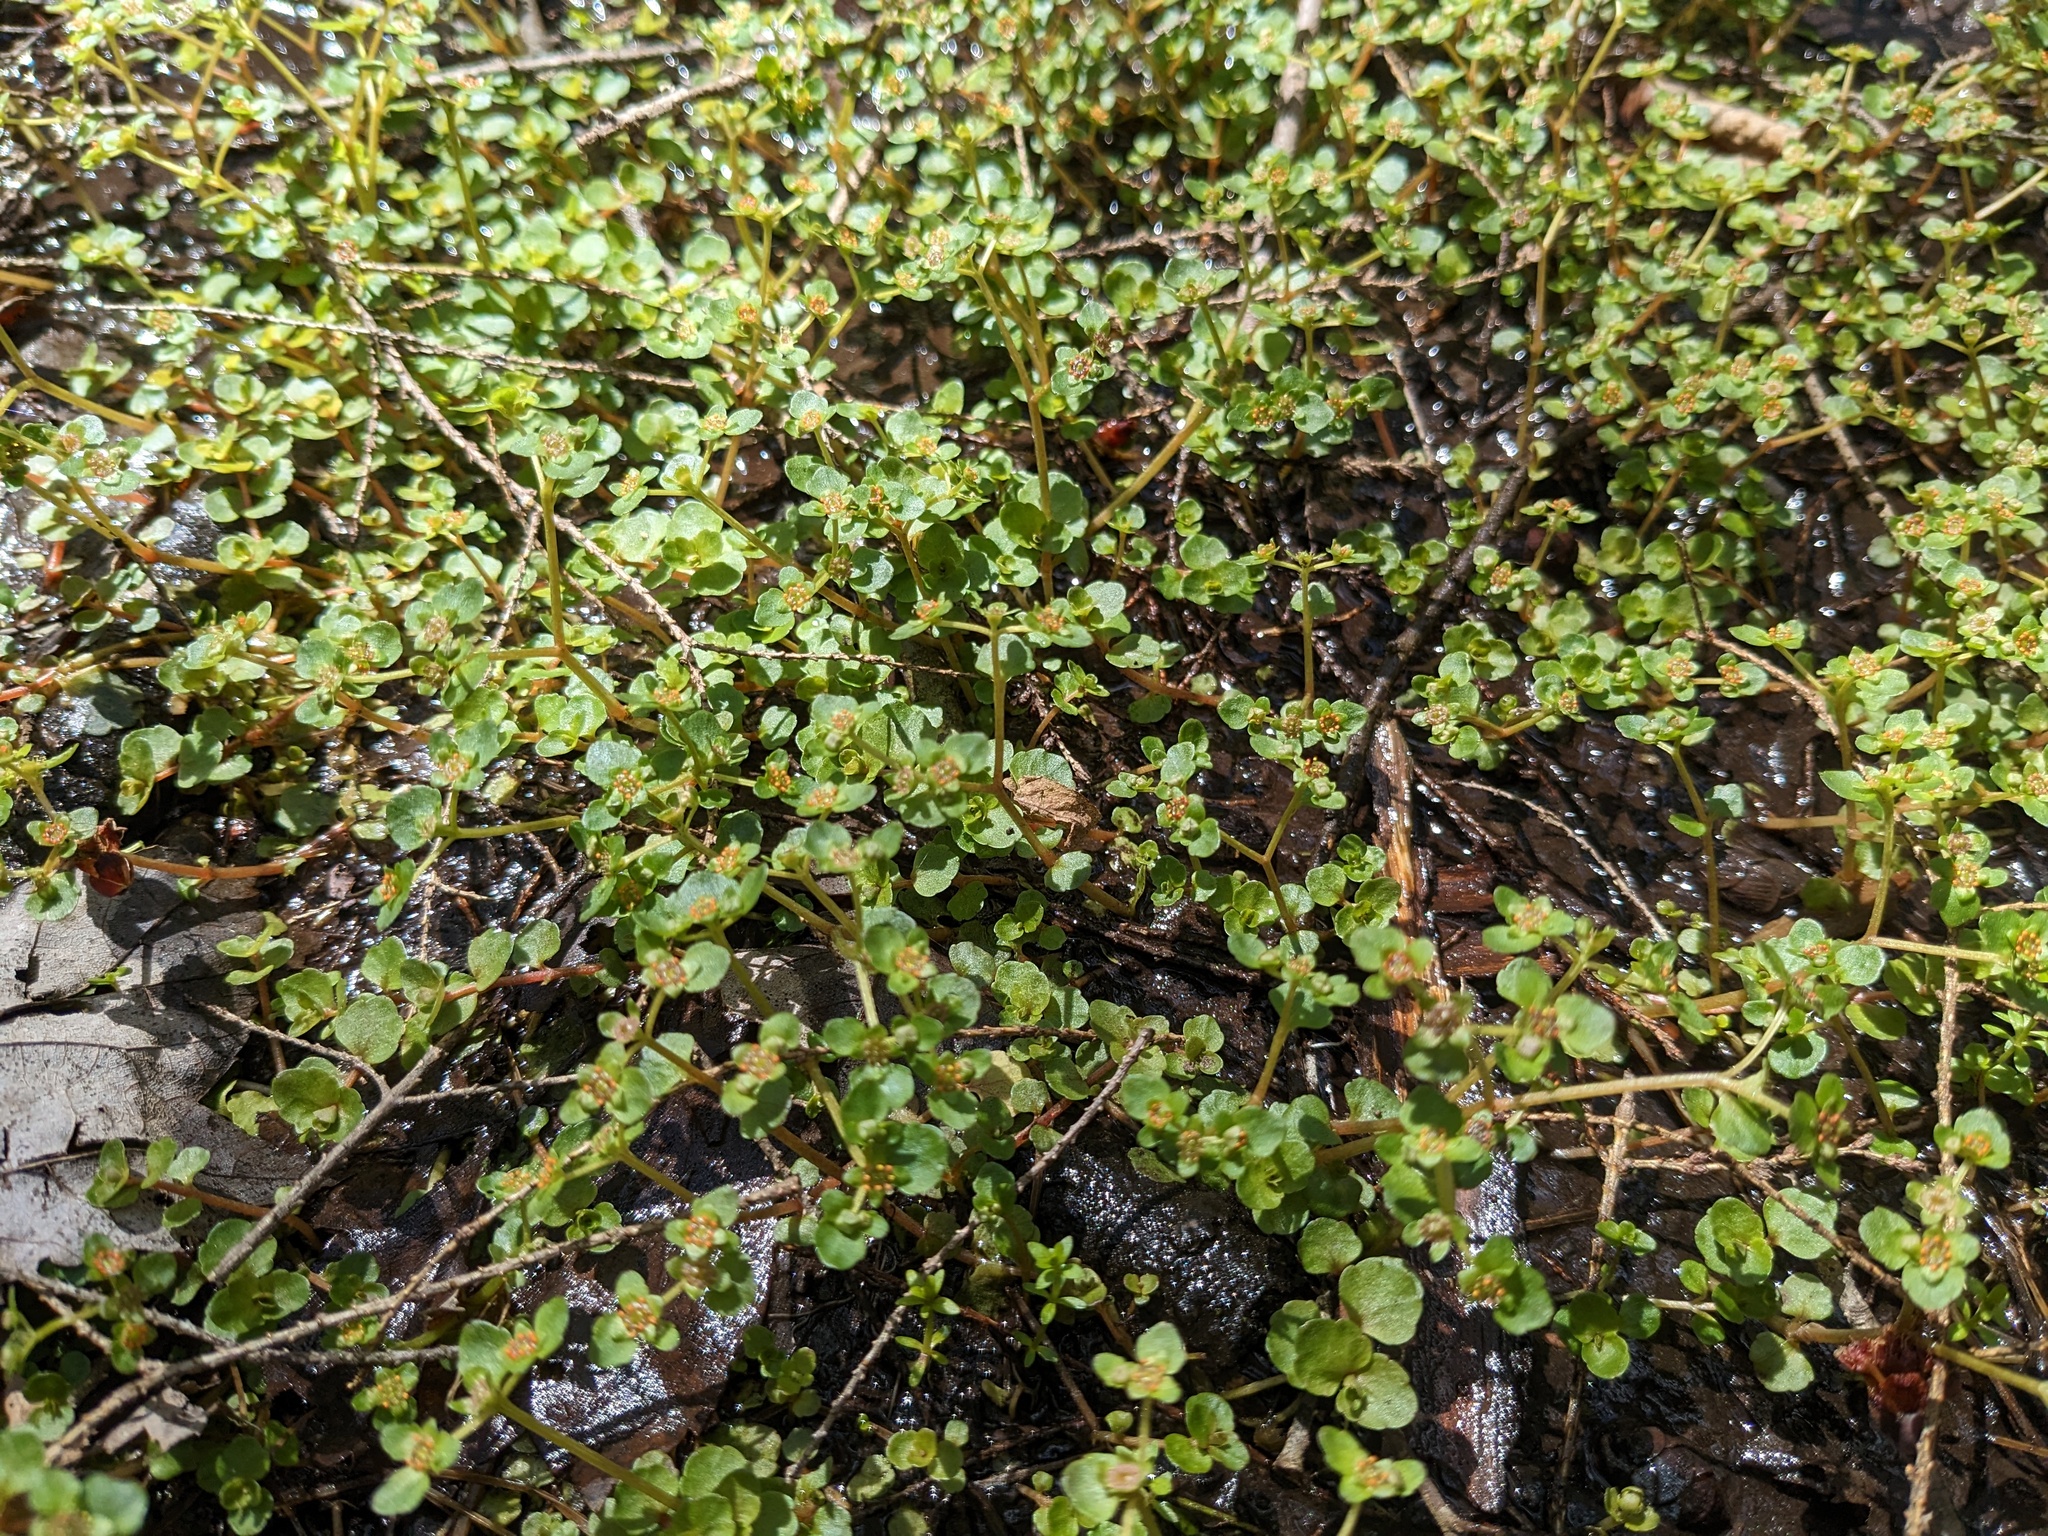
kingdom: Plantae
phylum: Tracheophyta
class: Magnoliopsida
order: Saxifragales
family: Saxifragaceae
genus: Chrysosplenium
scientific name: Chrysosplenium americanum
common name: American golden-saxifrage
